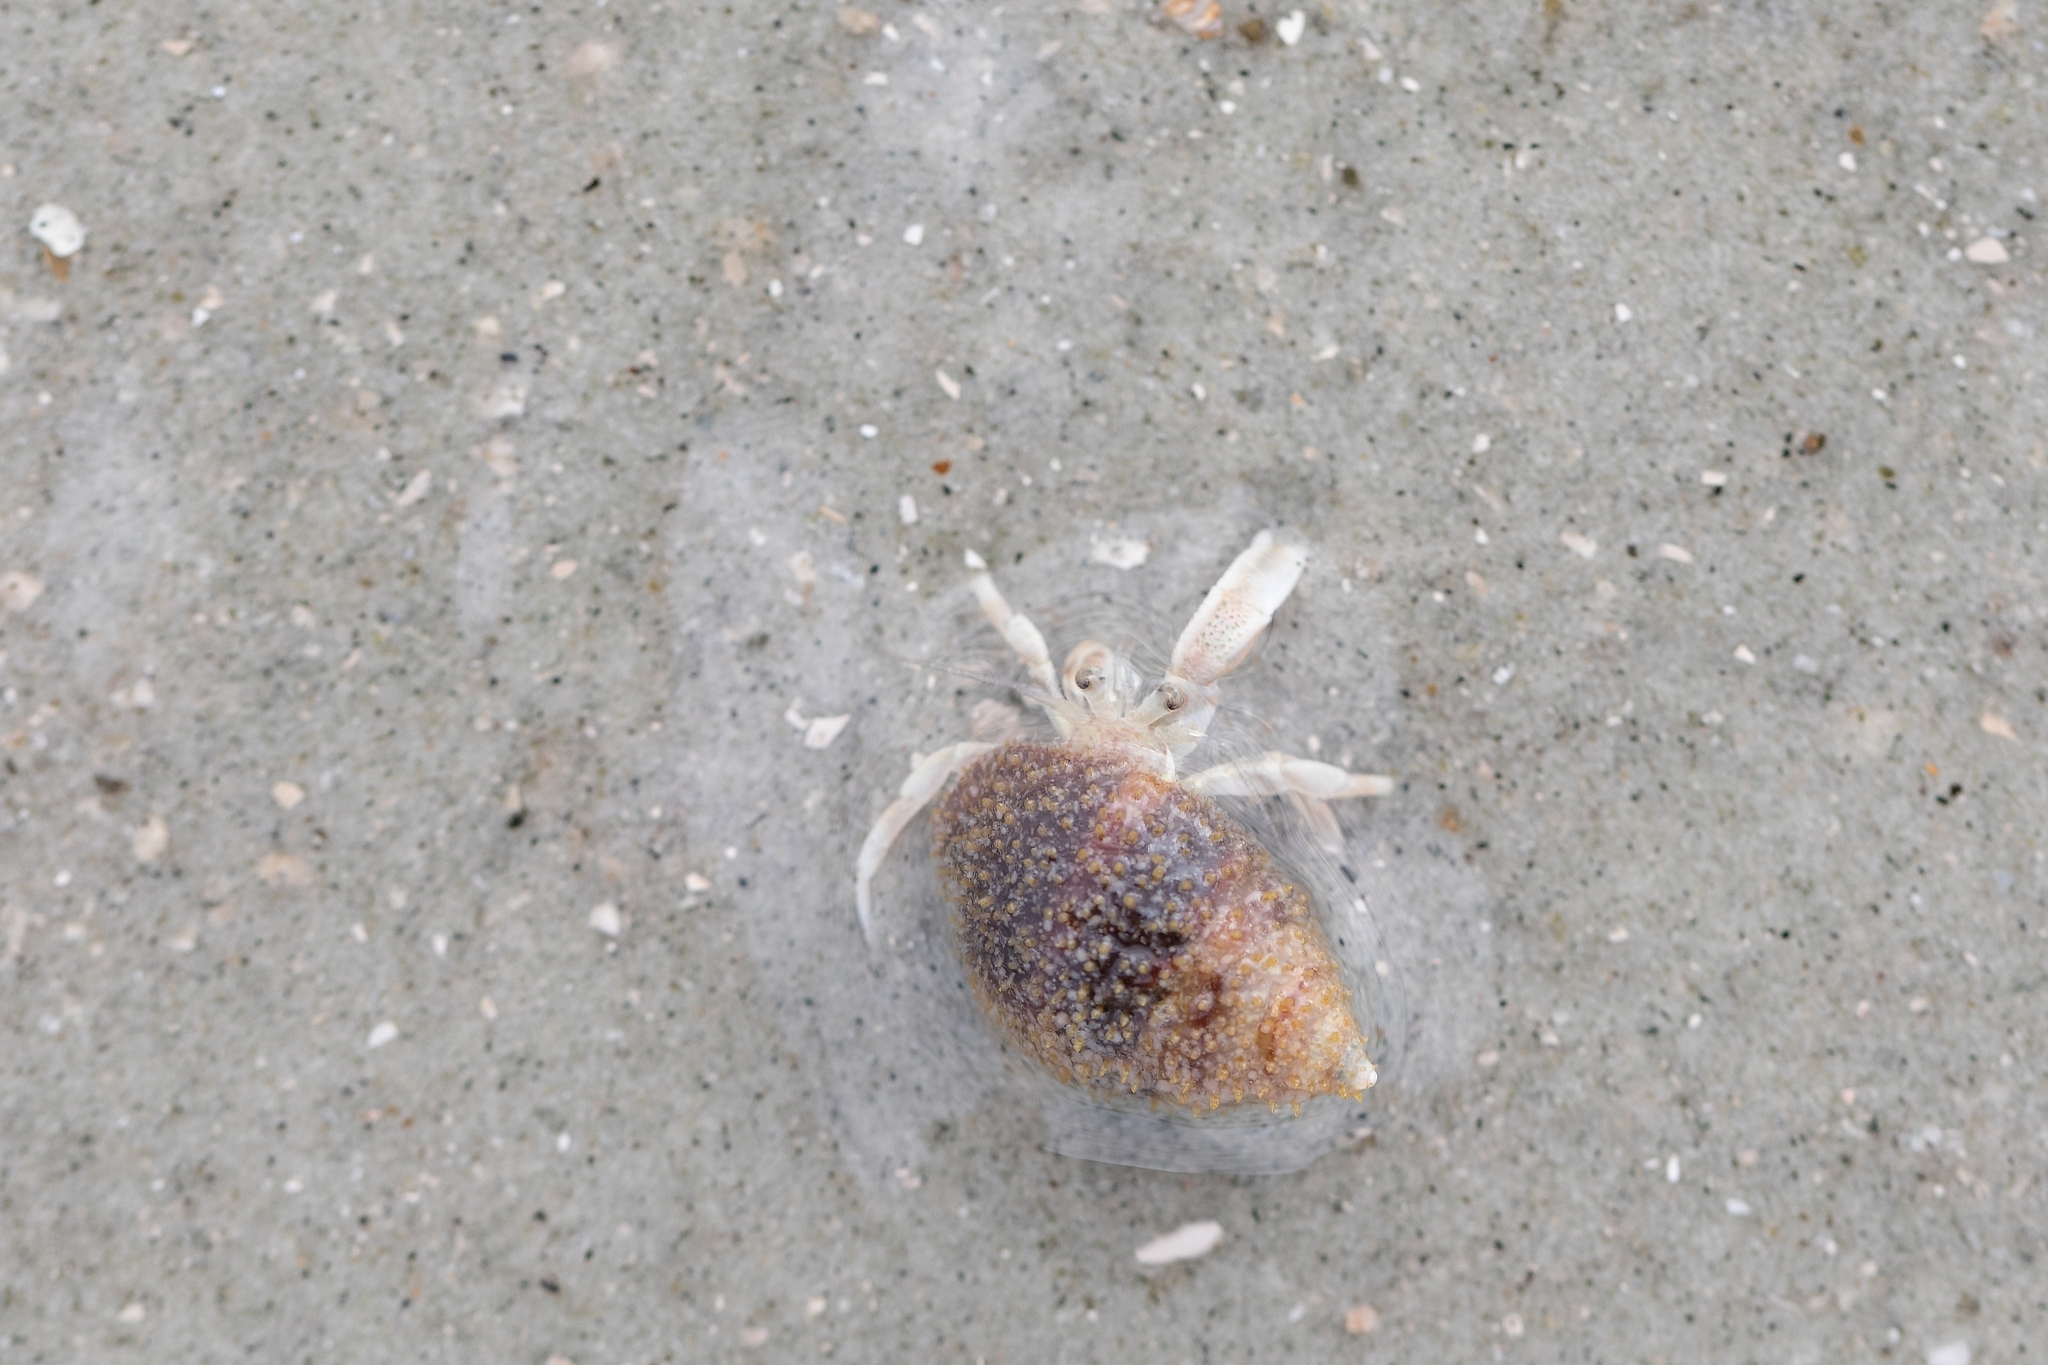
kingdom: Animalia
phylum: Arthropoda
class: Malacostraca
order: Decapoda
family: Paguridae
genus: Pagurus
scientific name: Pagurus longicarpus
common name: Long-armed hermit crab
